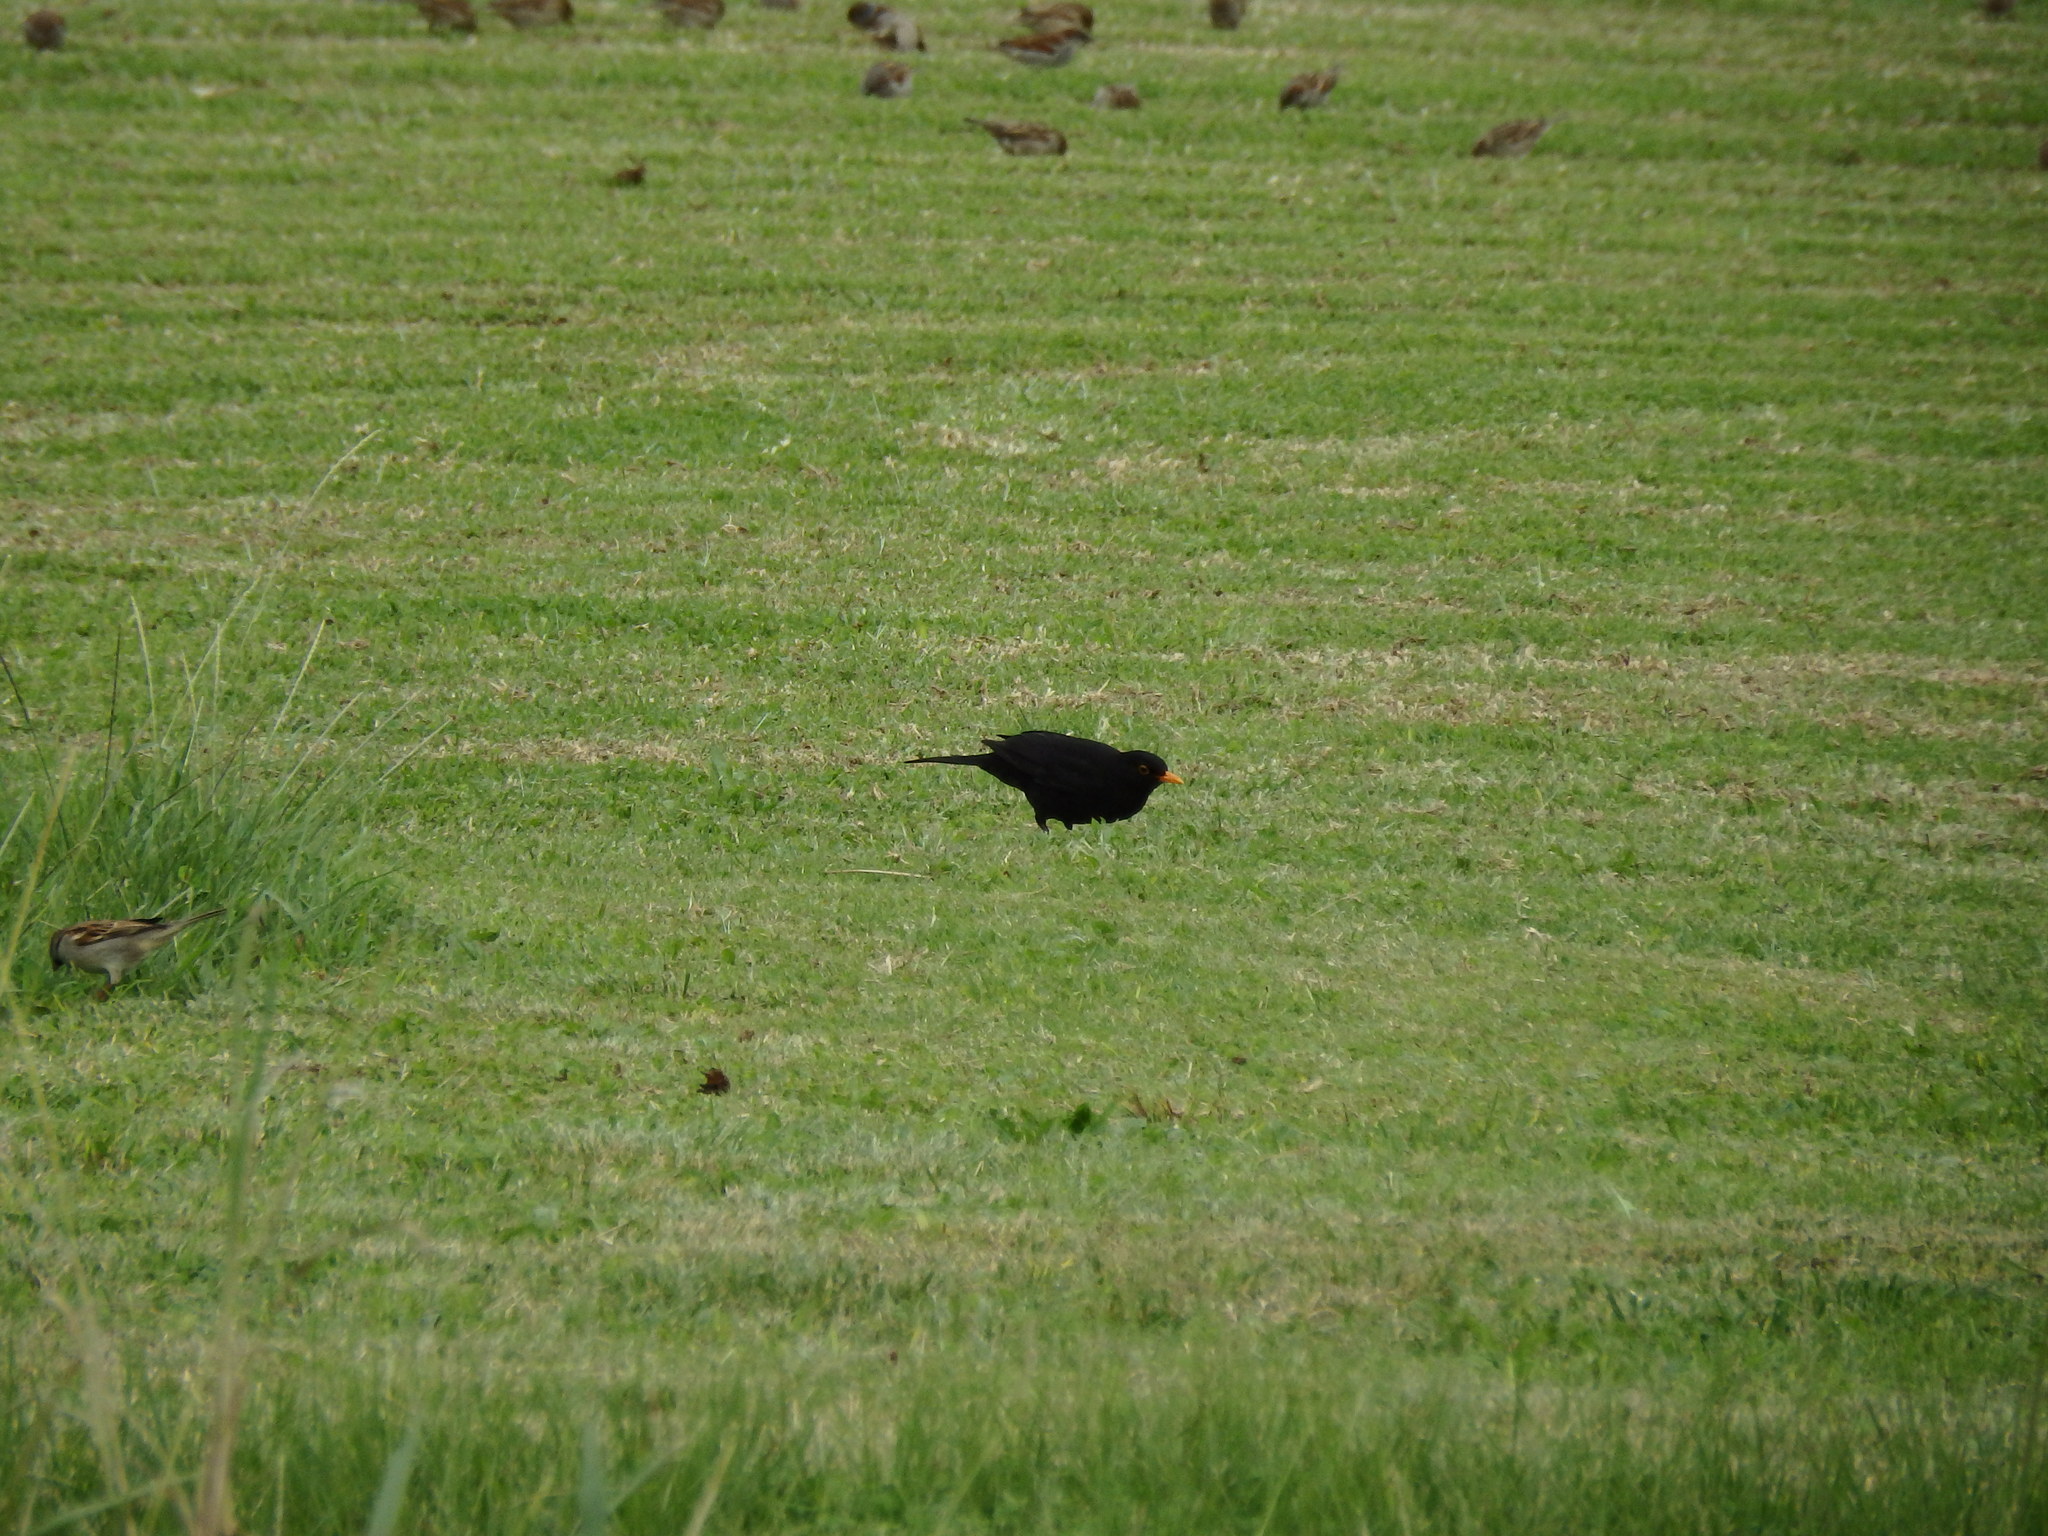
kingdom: Animalia
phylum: Chordata
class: Aves
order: Passeriformes
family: Turdidae
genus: Turdus
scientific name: Turdus merula
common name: Common blackbird
